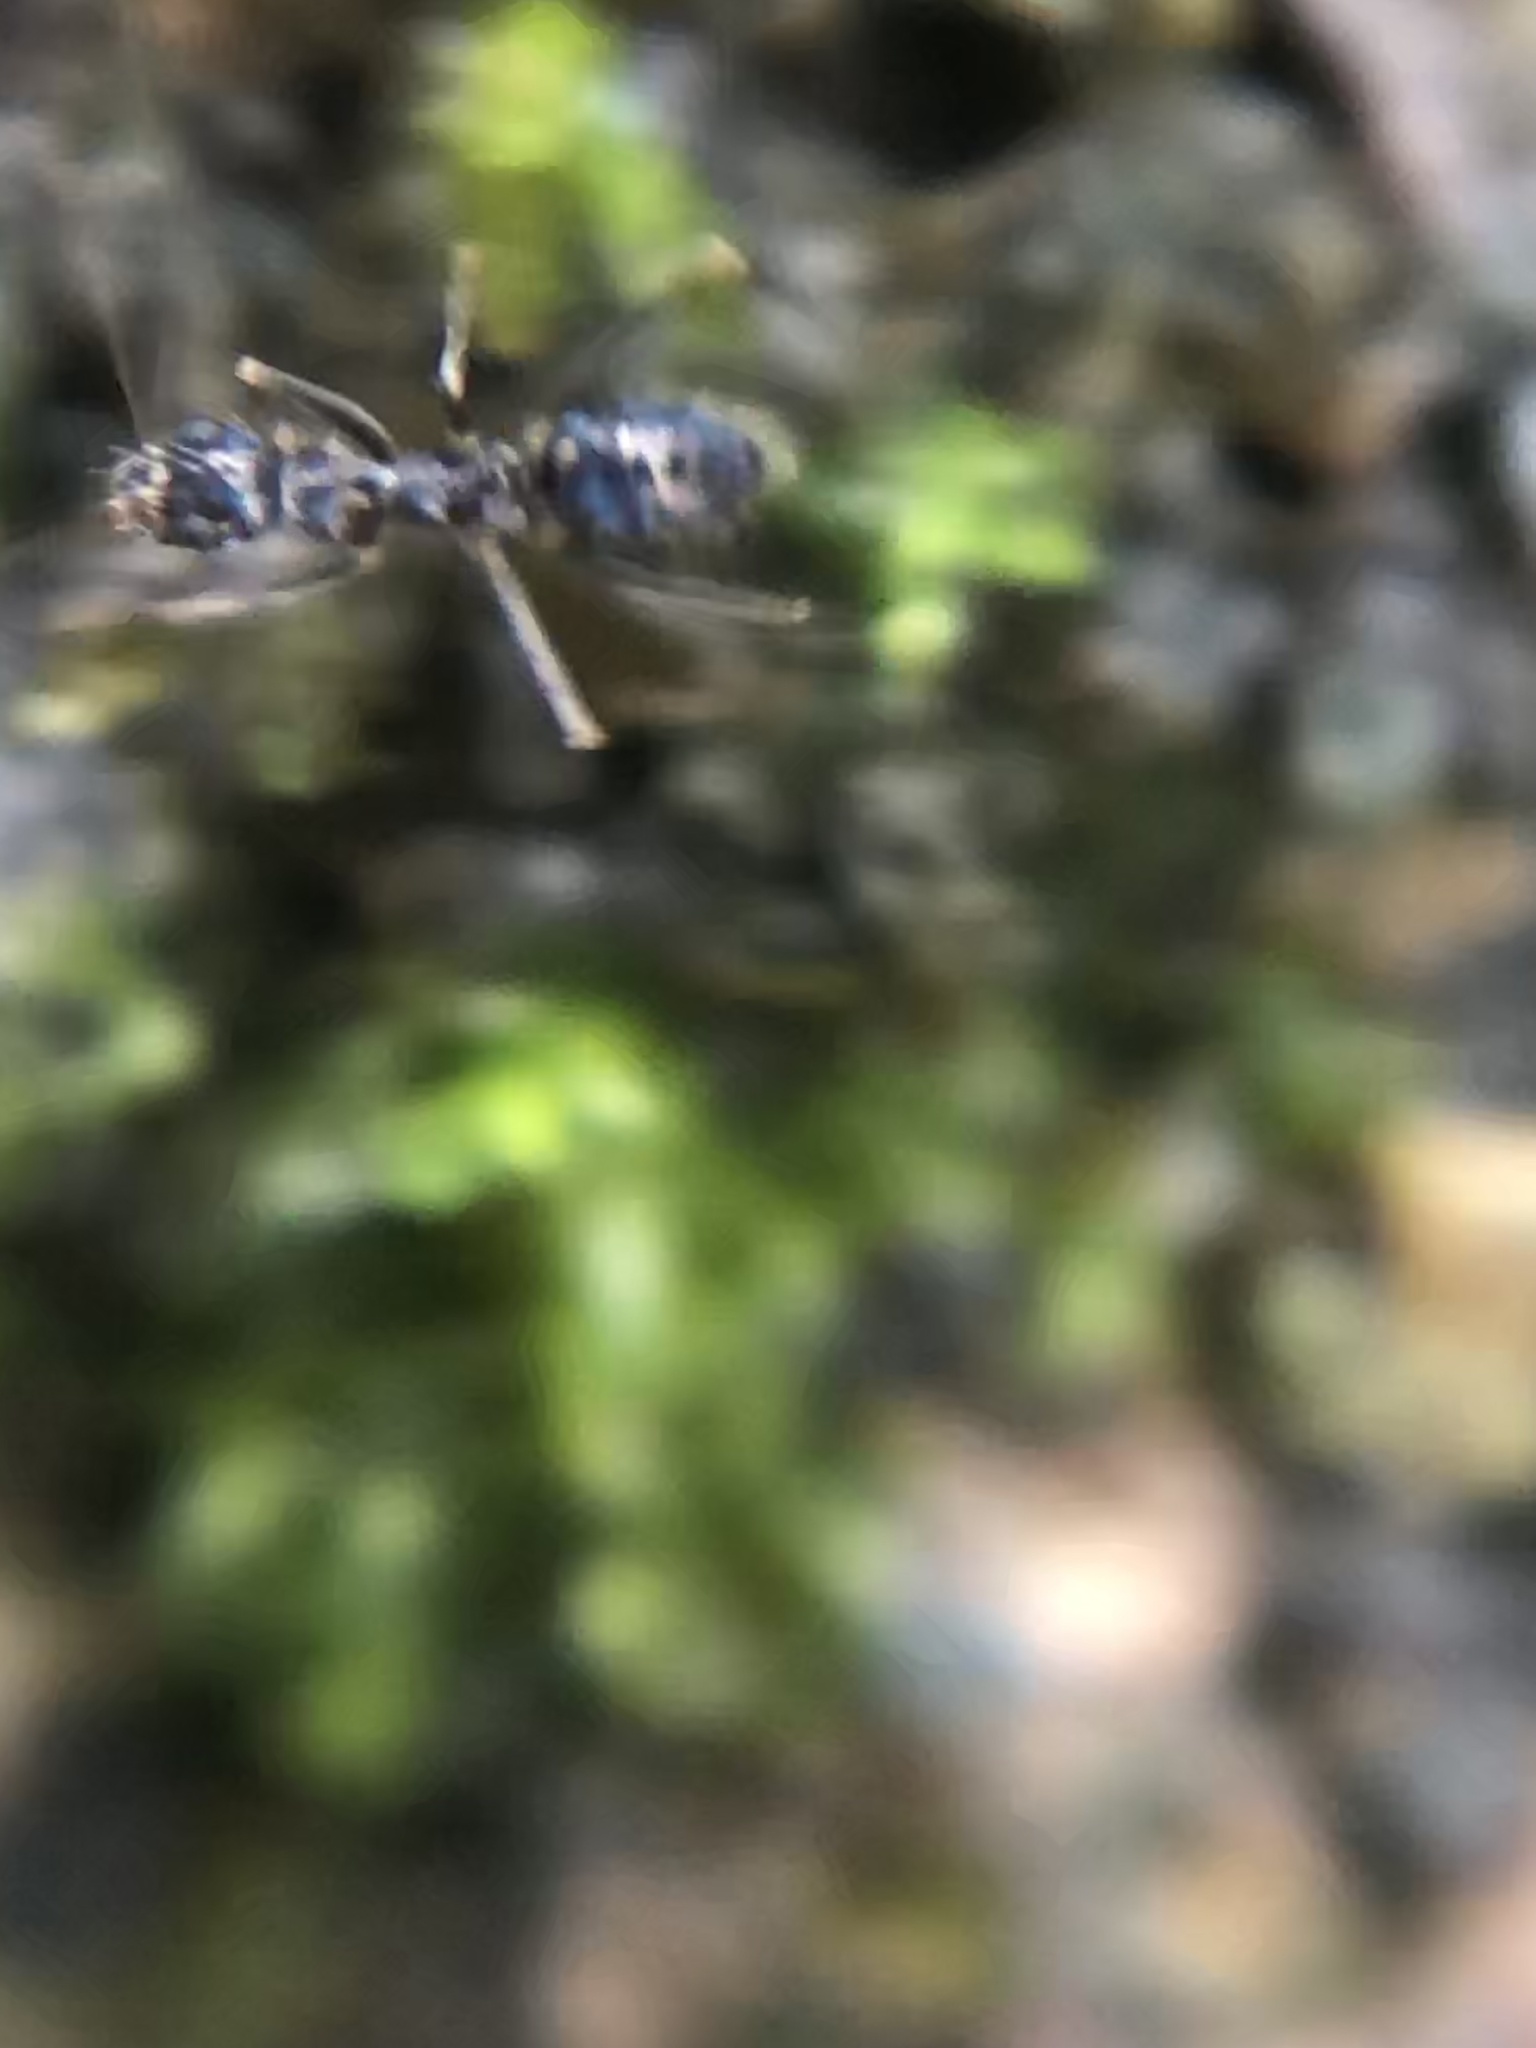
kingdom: Animalia
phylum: Arthropoda
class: Insecta
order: Hymenoptera
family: Formicidae
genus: Paratrechina
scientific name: Paratrechina longicornis
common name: Longhorned crazy ant
